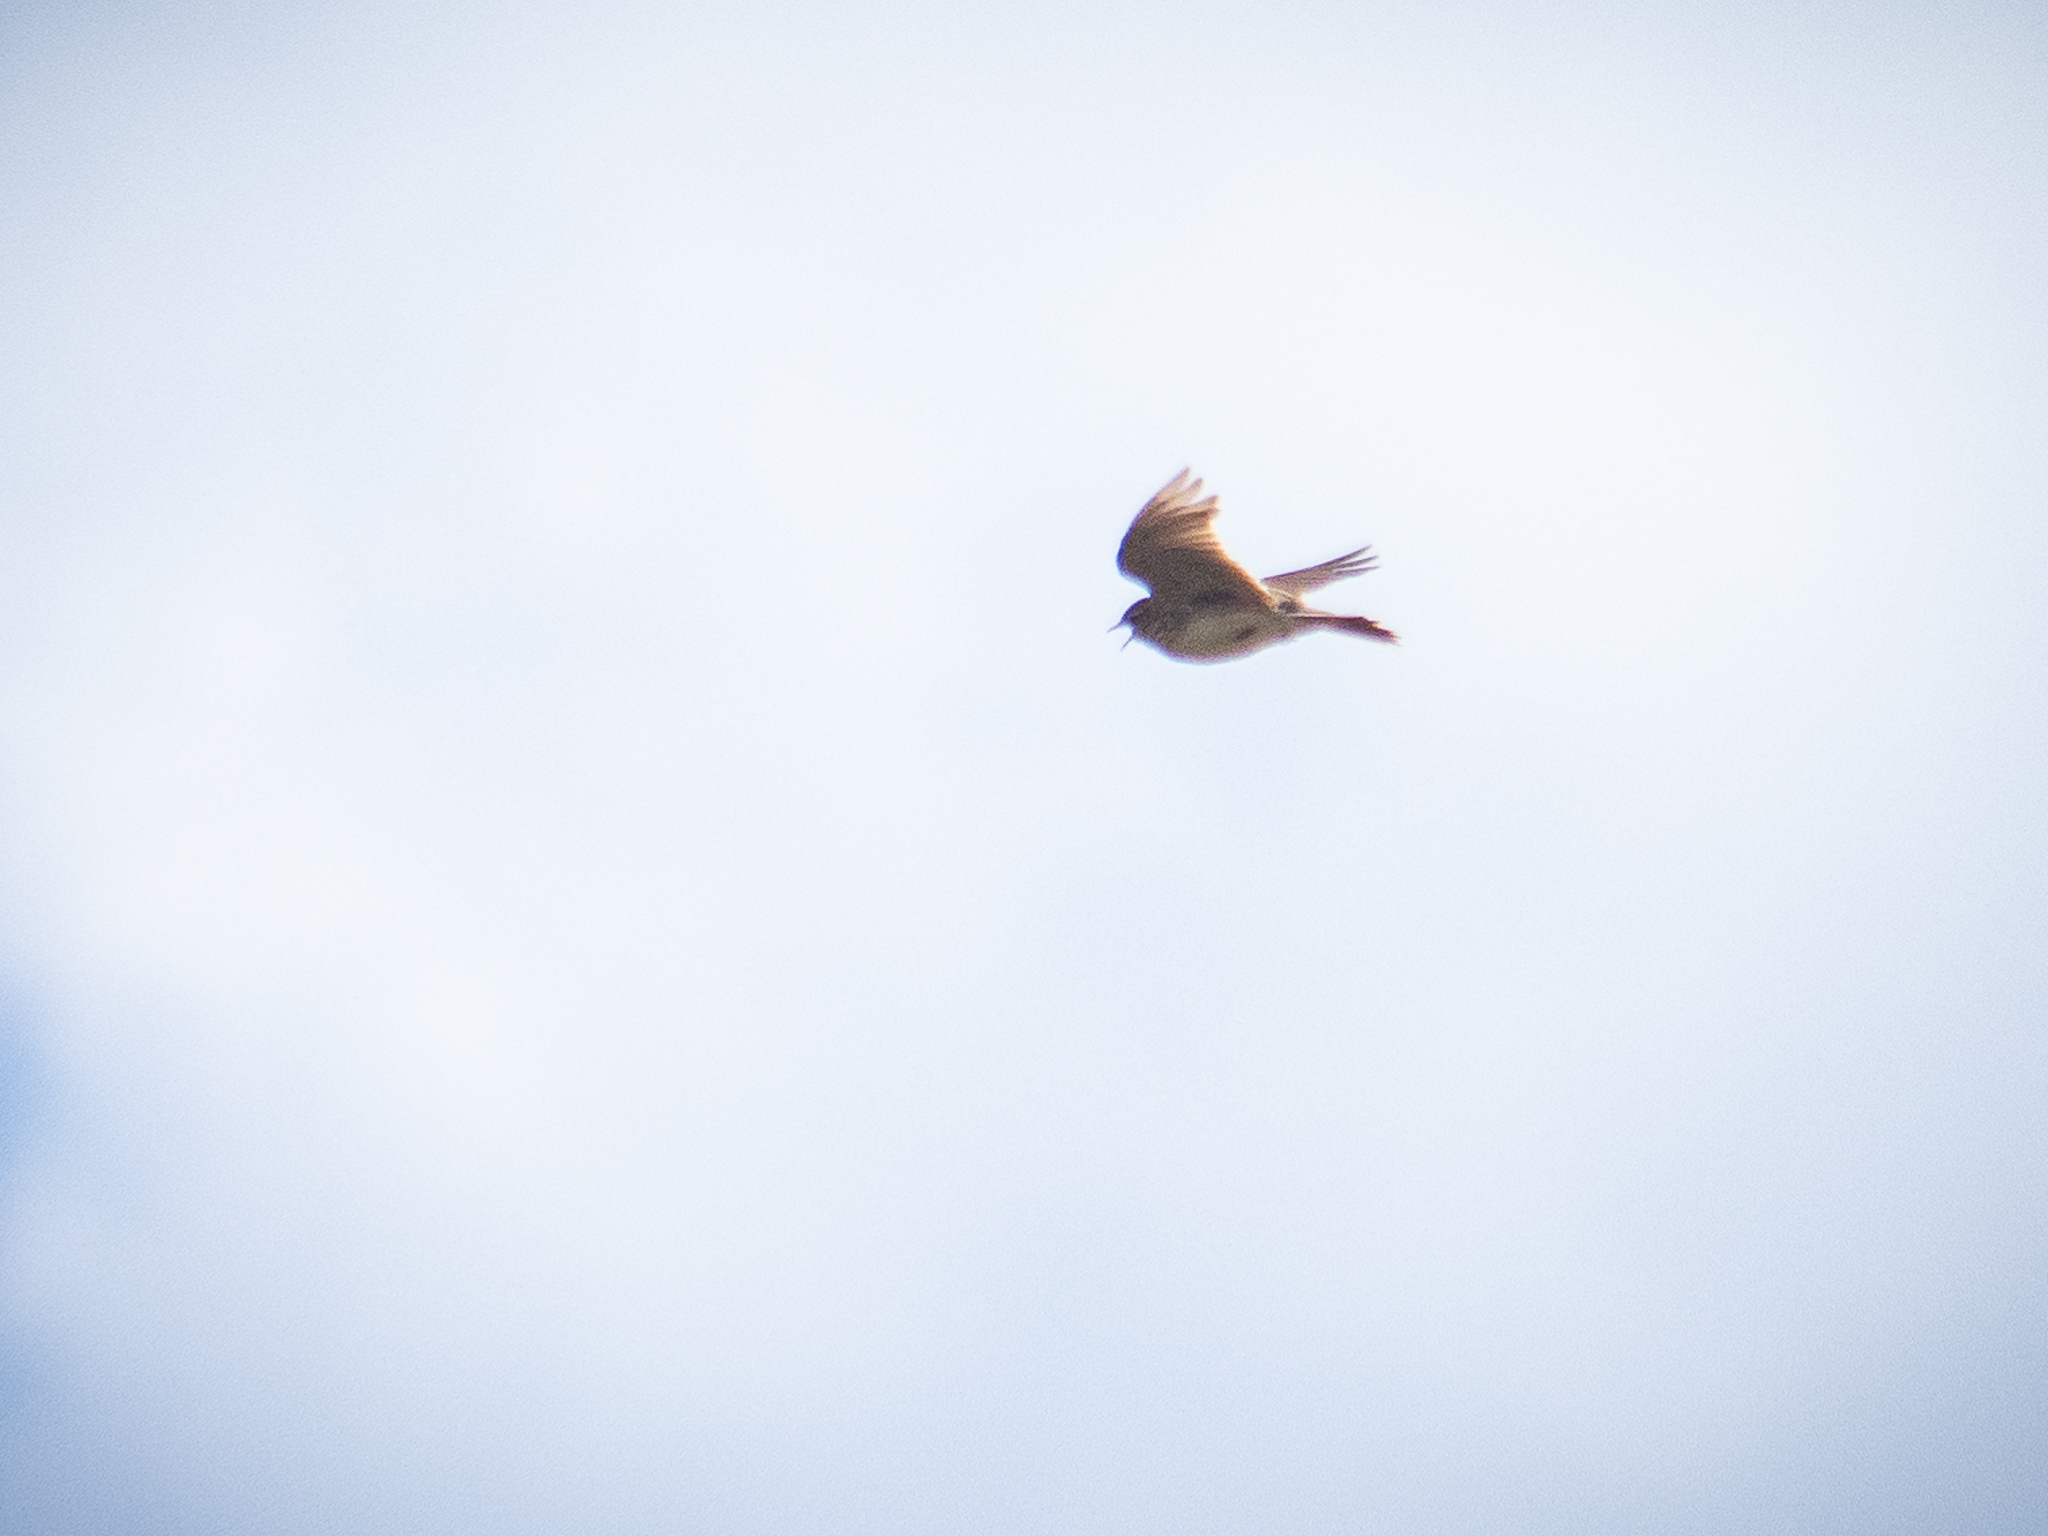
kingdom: Animalia
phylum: Chordata
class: Aves
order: Passeriformes
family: Alaudidae
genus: Alauda
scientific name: Alauda arvensis
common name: Eurasian skylark
